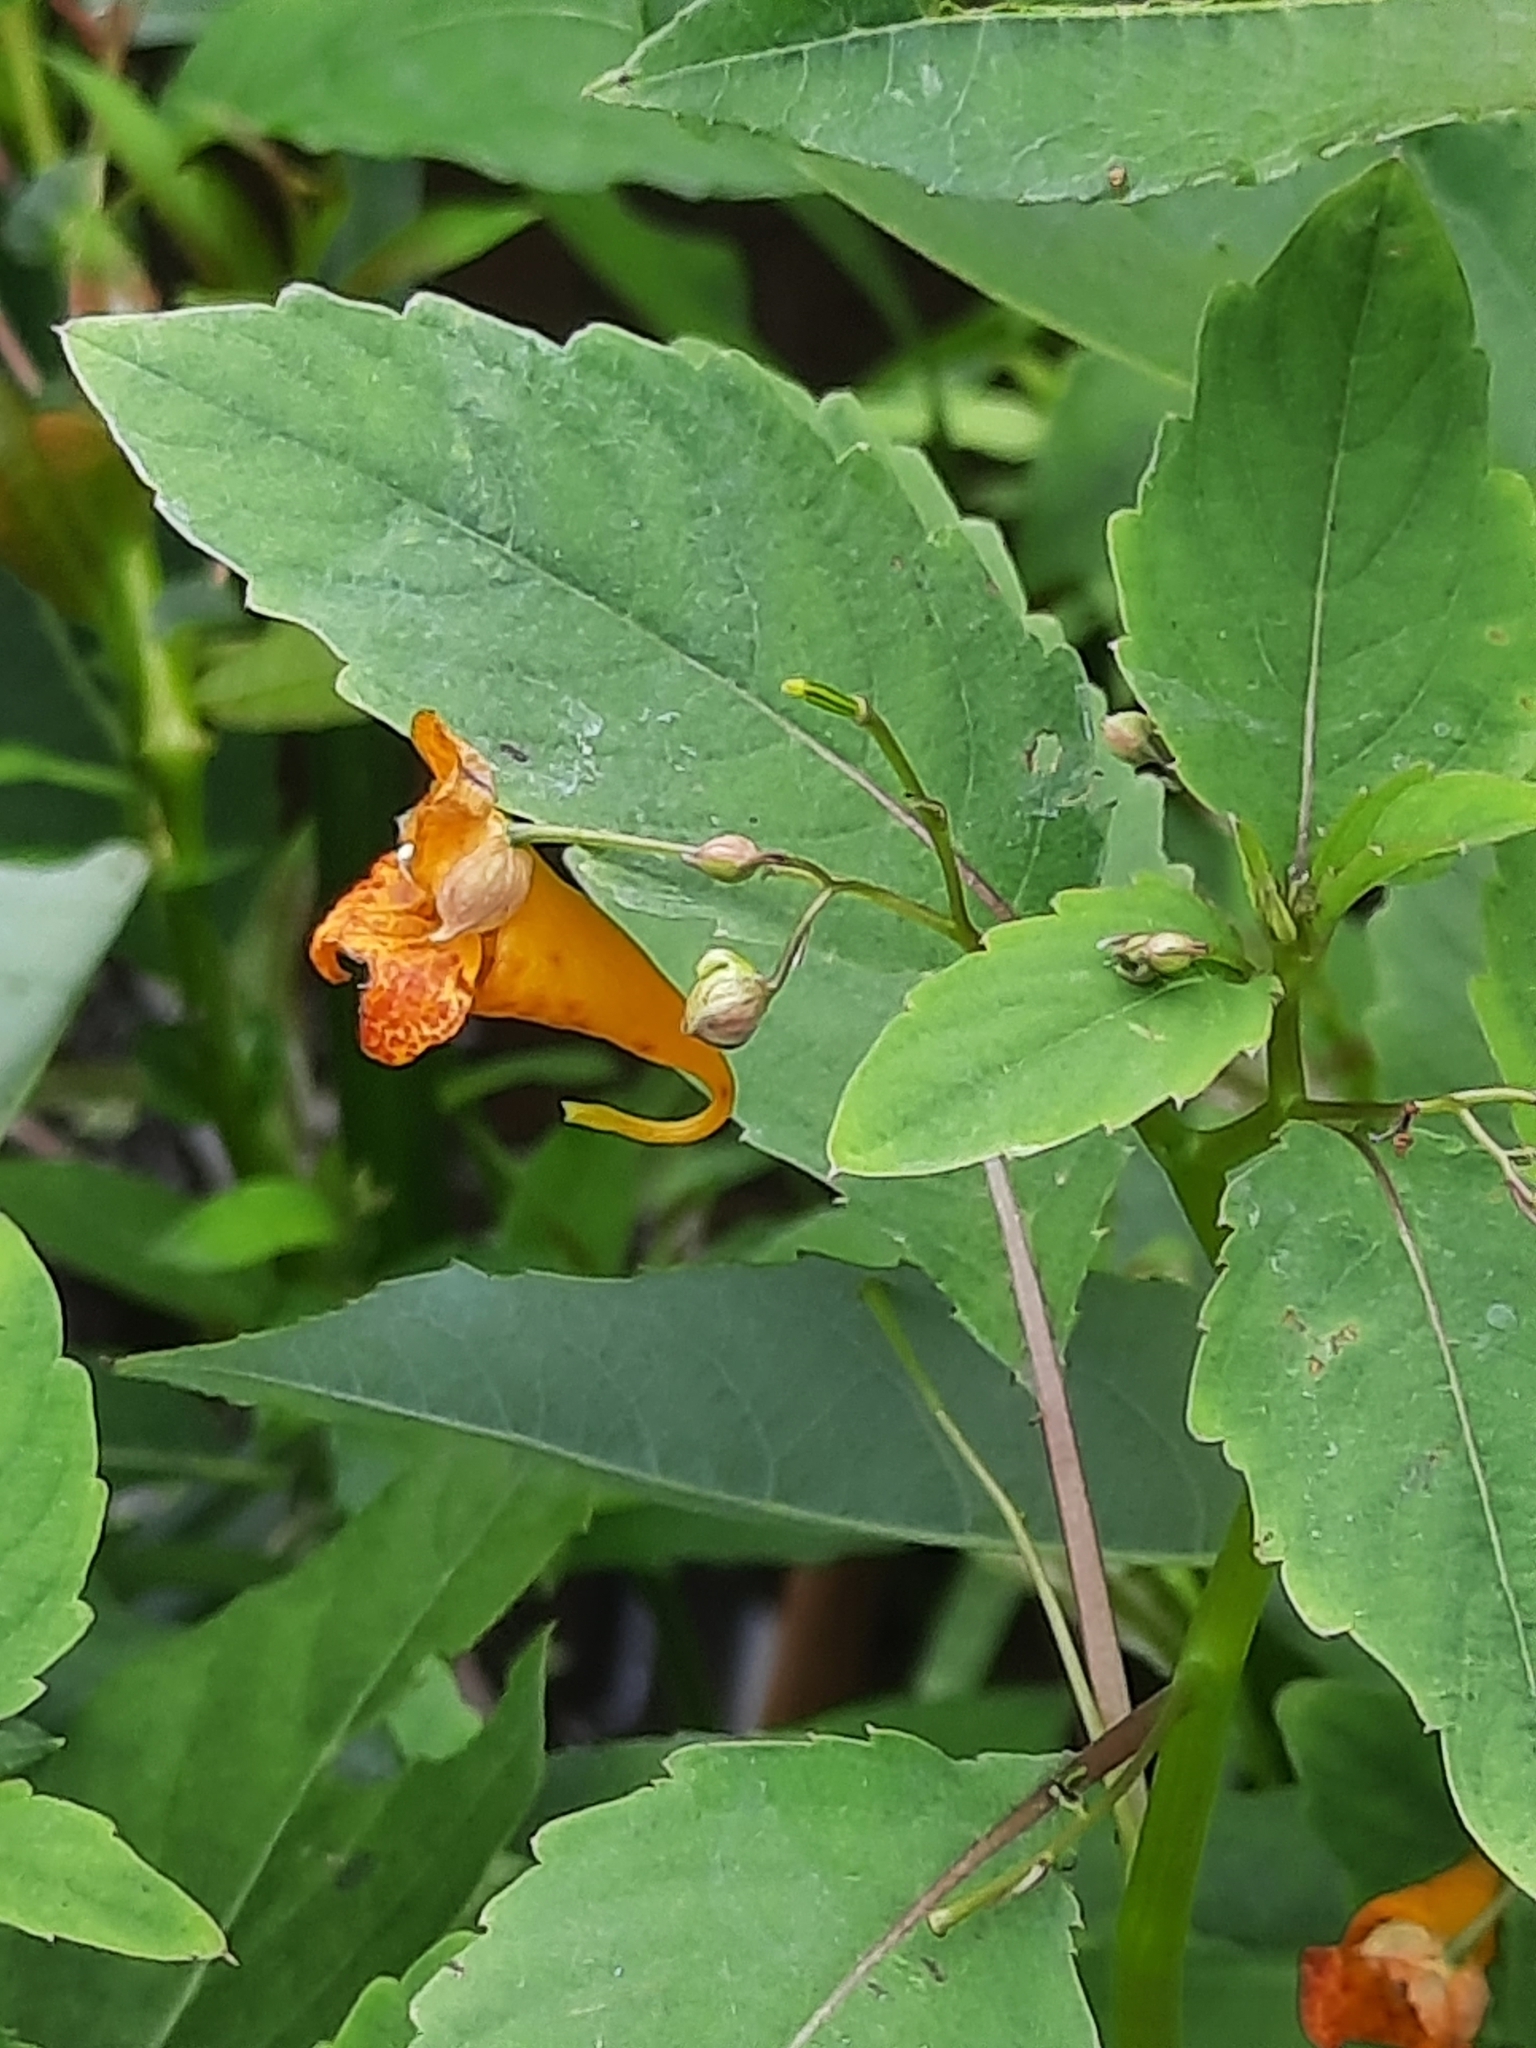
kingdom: Plantae
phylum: Tracheophyta
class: Magnoliopsida
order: Ericales
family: Balsaminaceae
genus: Impatiens
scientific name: Impatiens capensis
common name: Orange balsam
